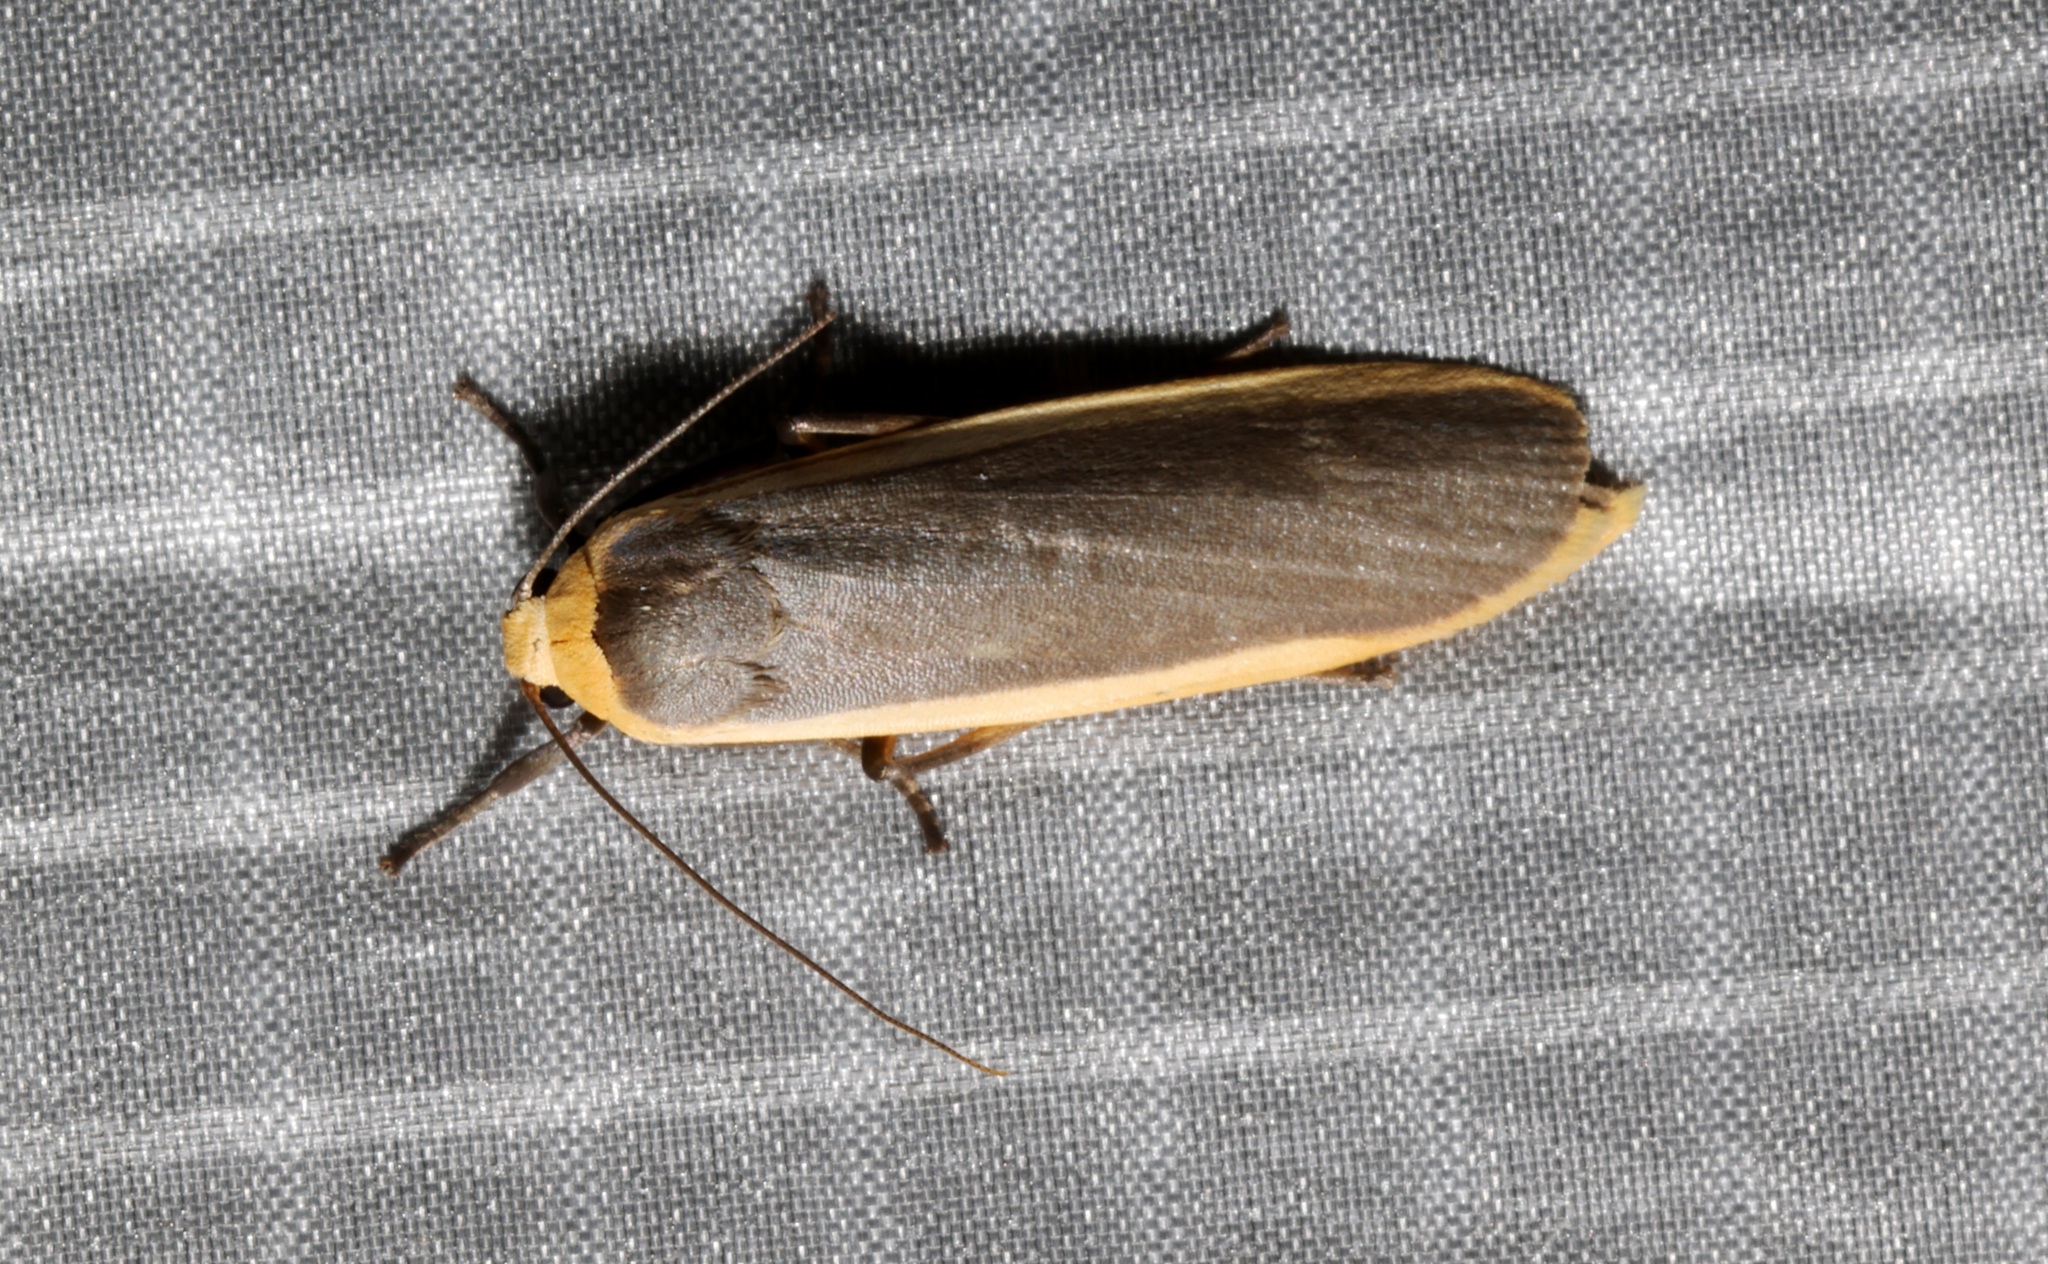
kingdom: Animalia
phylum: Arthropoda
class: Insecta
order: Lepidoptera
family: Erebidae
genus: Brunia
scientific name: Brunia antica
